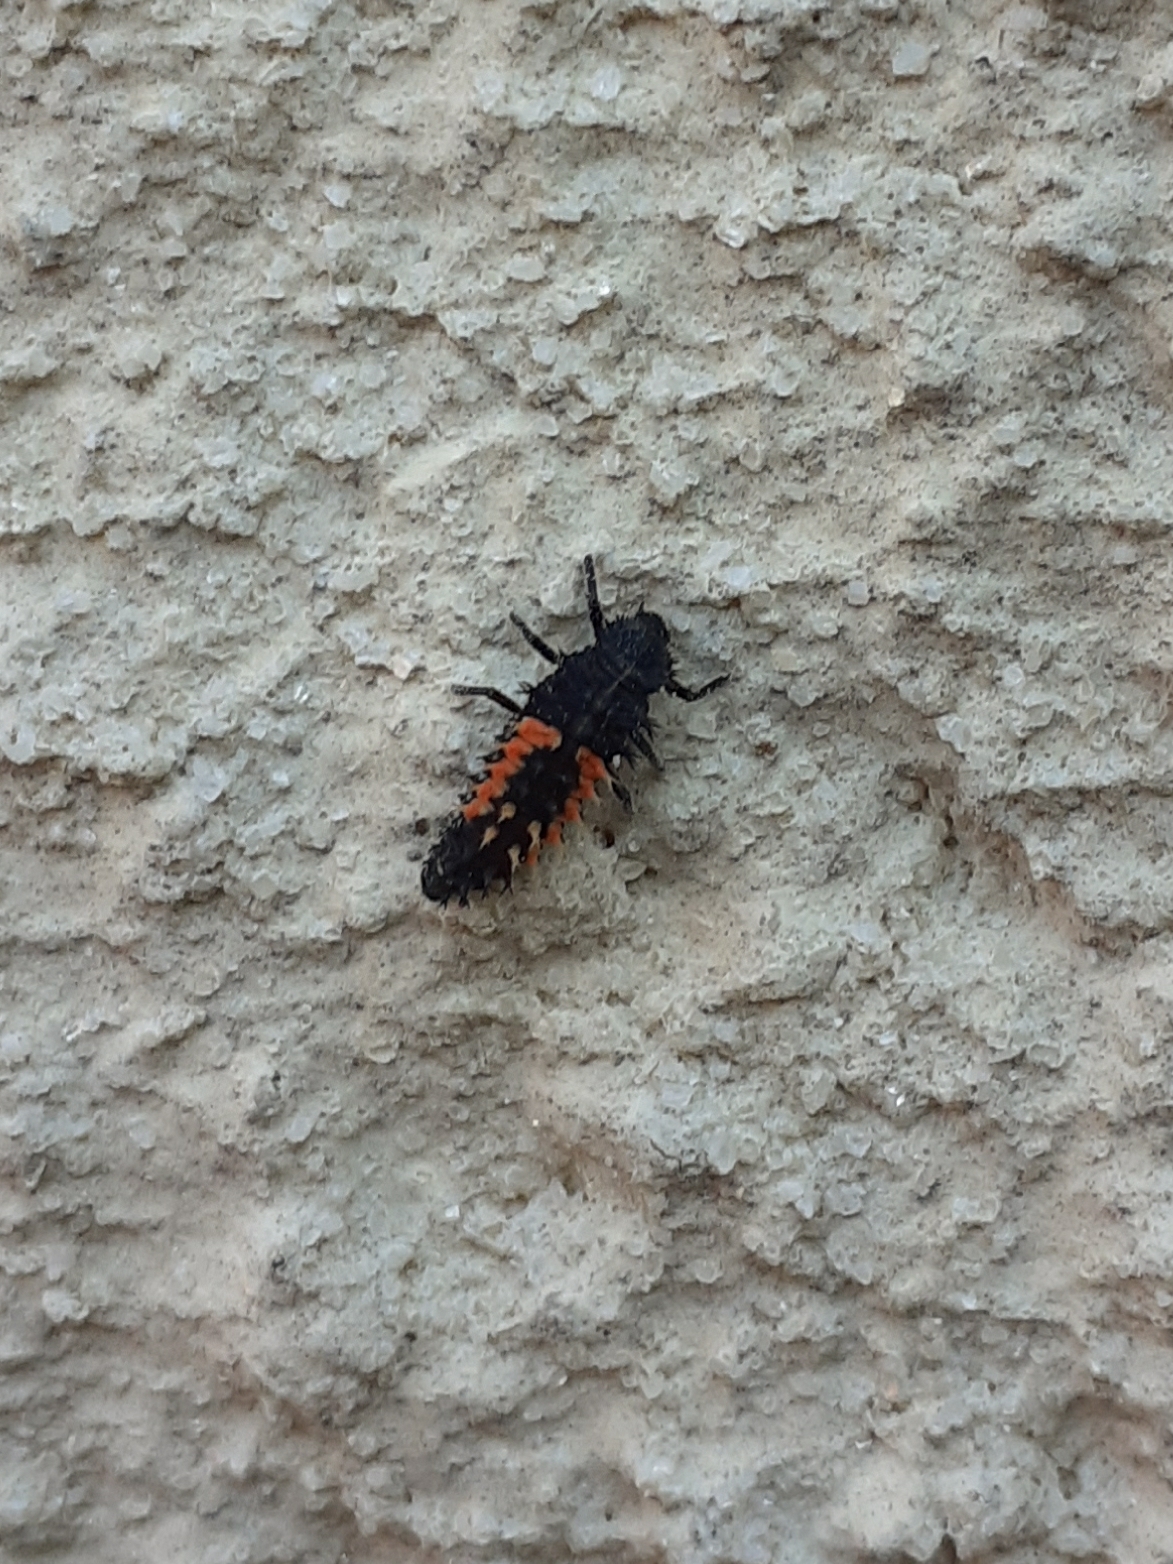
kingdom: Animalia
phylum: Arthropoda
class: Insecta
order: Coleoptera
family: Coccinellidae
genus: Harmonia
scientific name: Harmonia axyridis
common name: Harlequin ladybird
